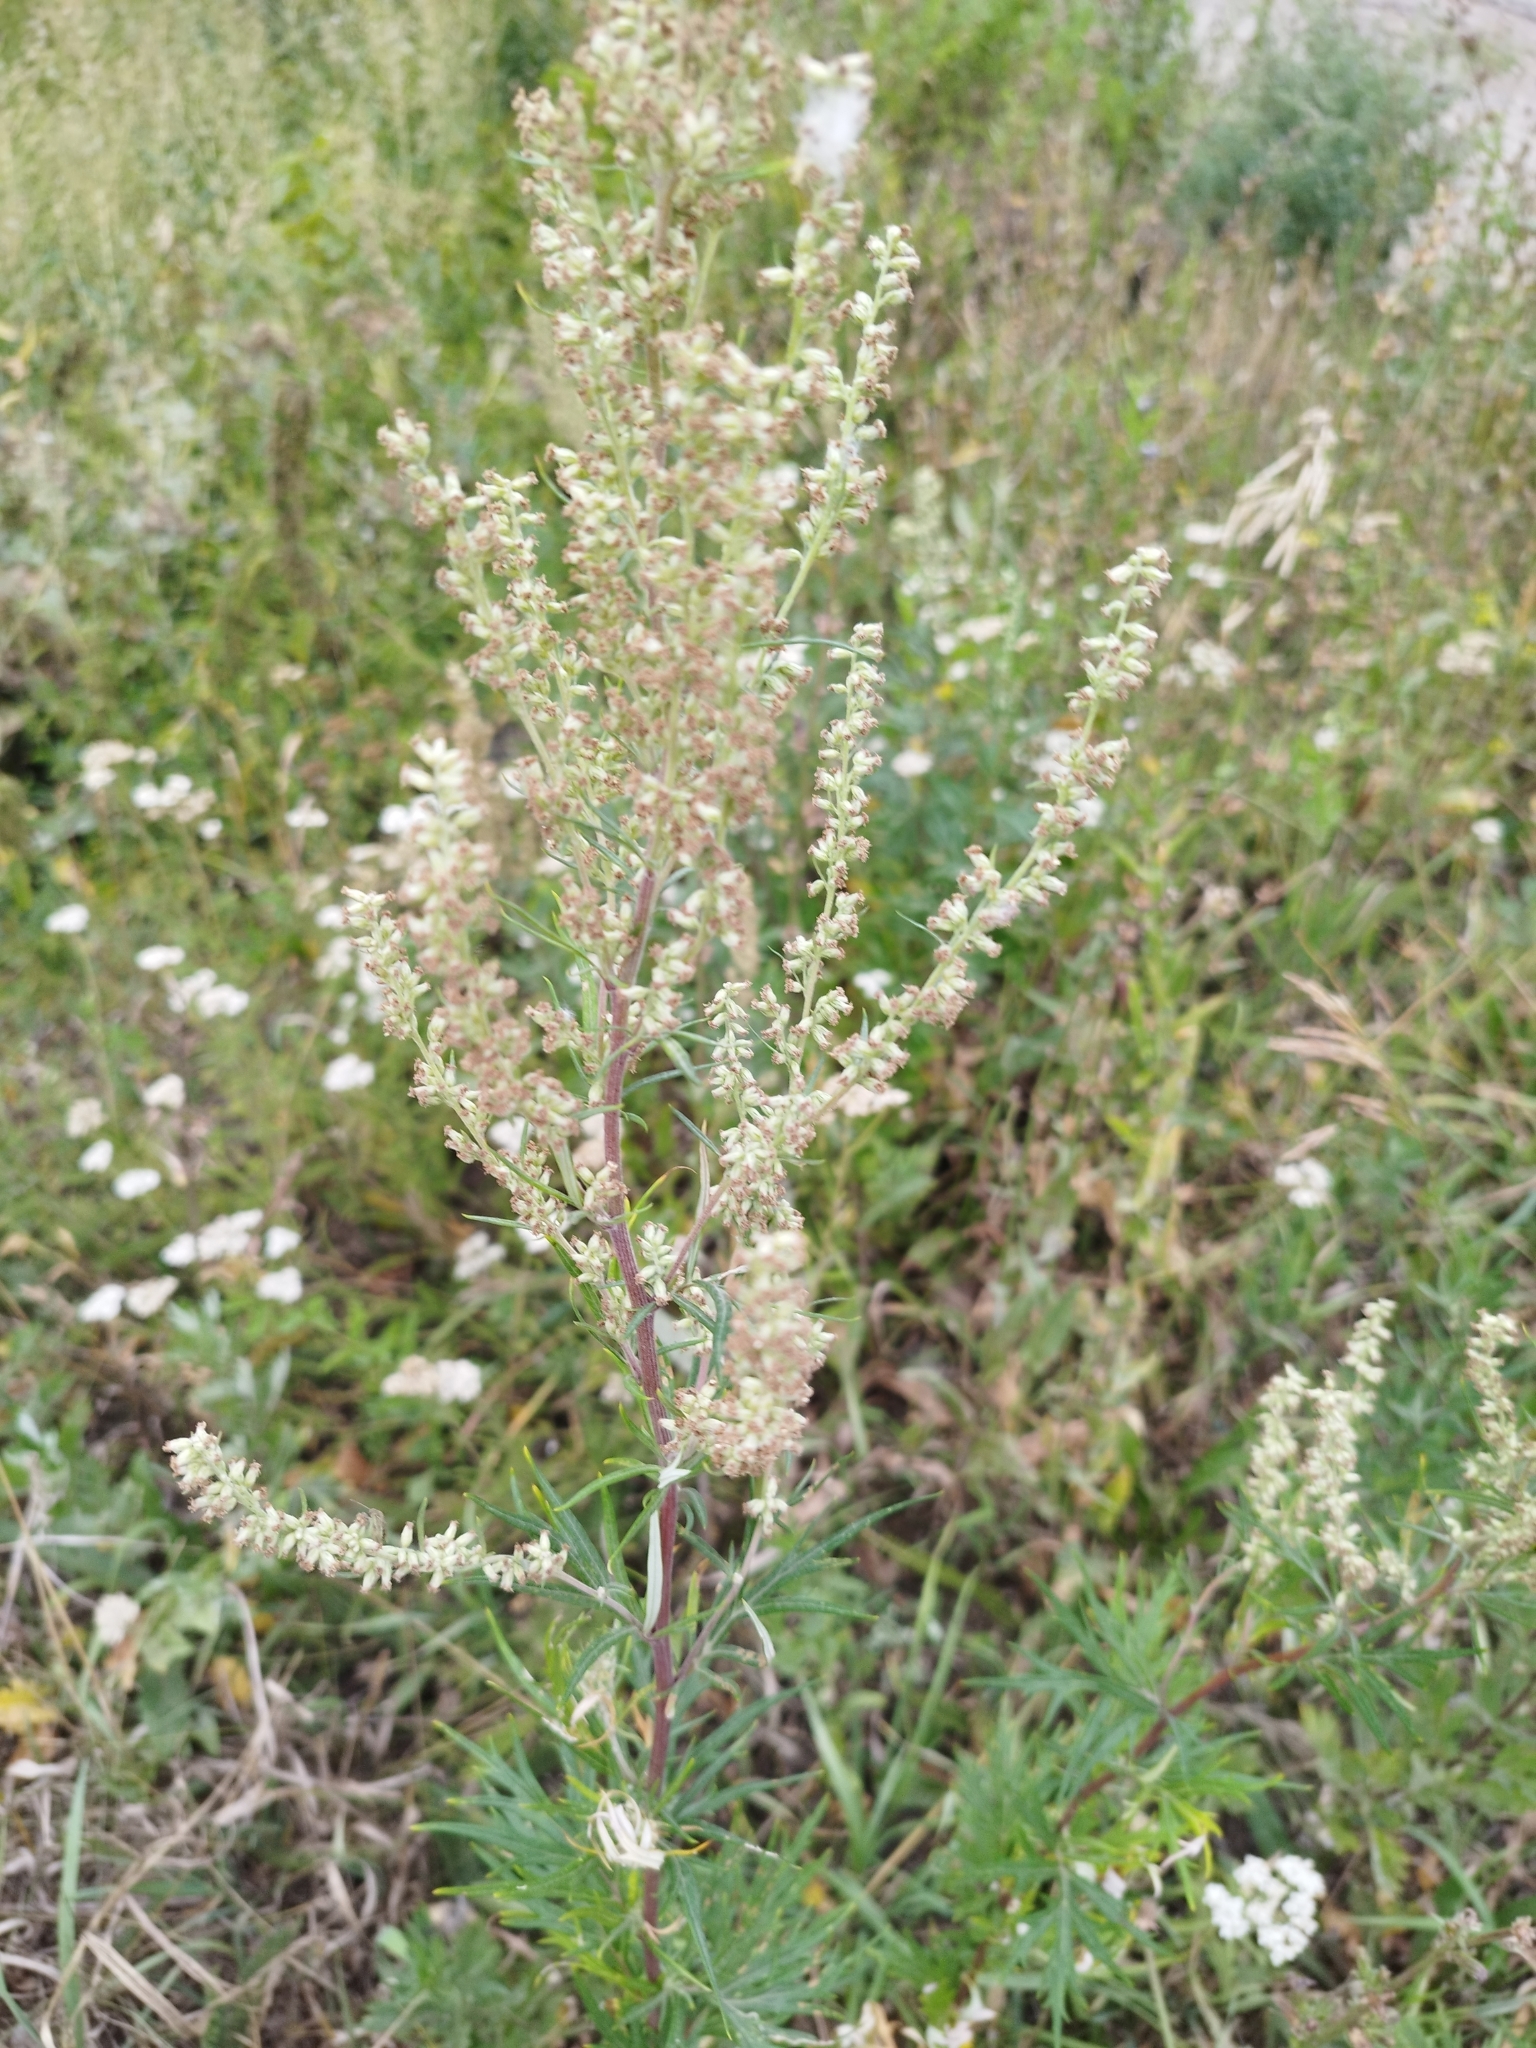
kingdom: Plantae
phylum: Tracheophyta
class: Magnoliopsida
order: Asterales
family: Asteraceae
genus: Artemisia
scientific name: Artemisia vulgaris
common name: Mugwort
